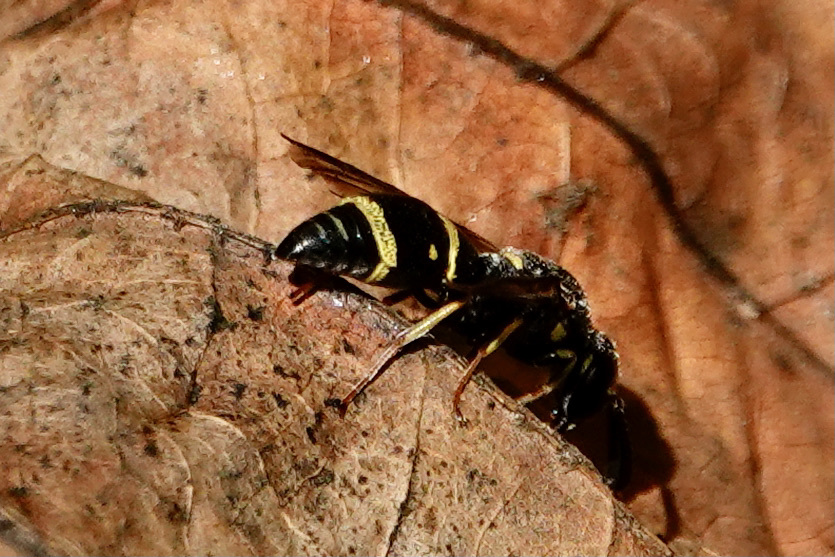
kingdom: Animalia
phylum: Arthropoda
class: Insecta
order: Hymenoptera
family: Eumenidae
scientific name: Eumenidae
